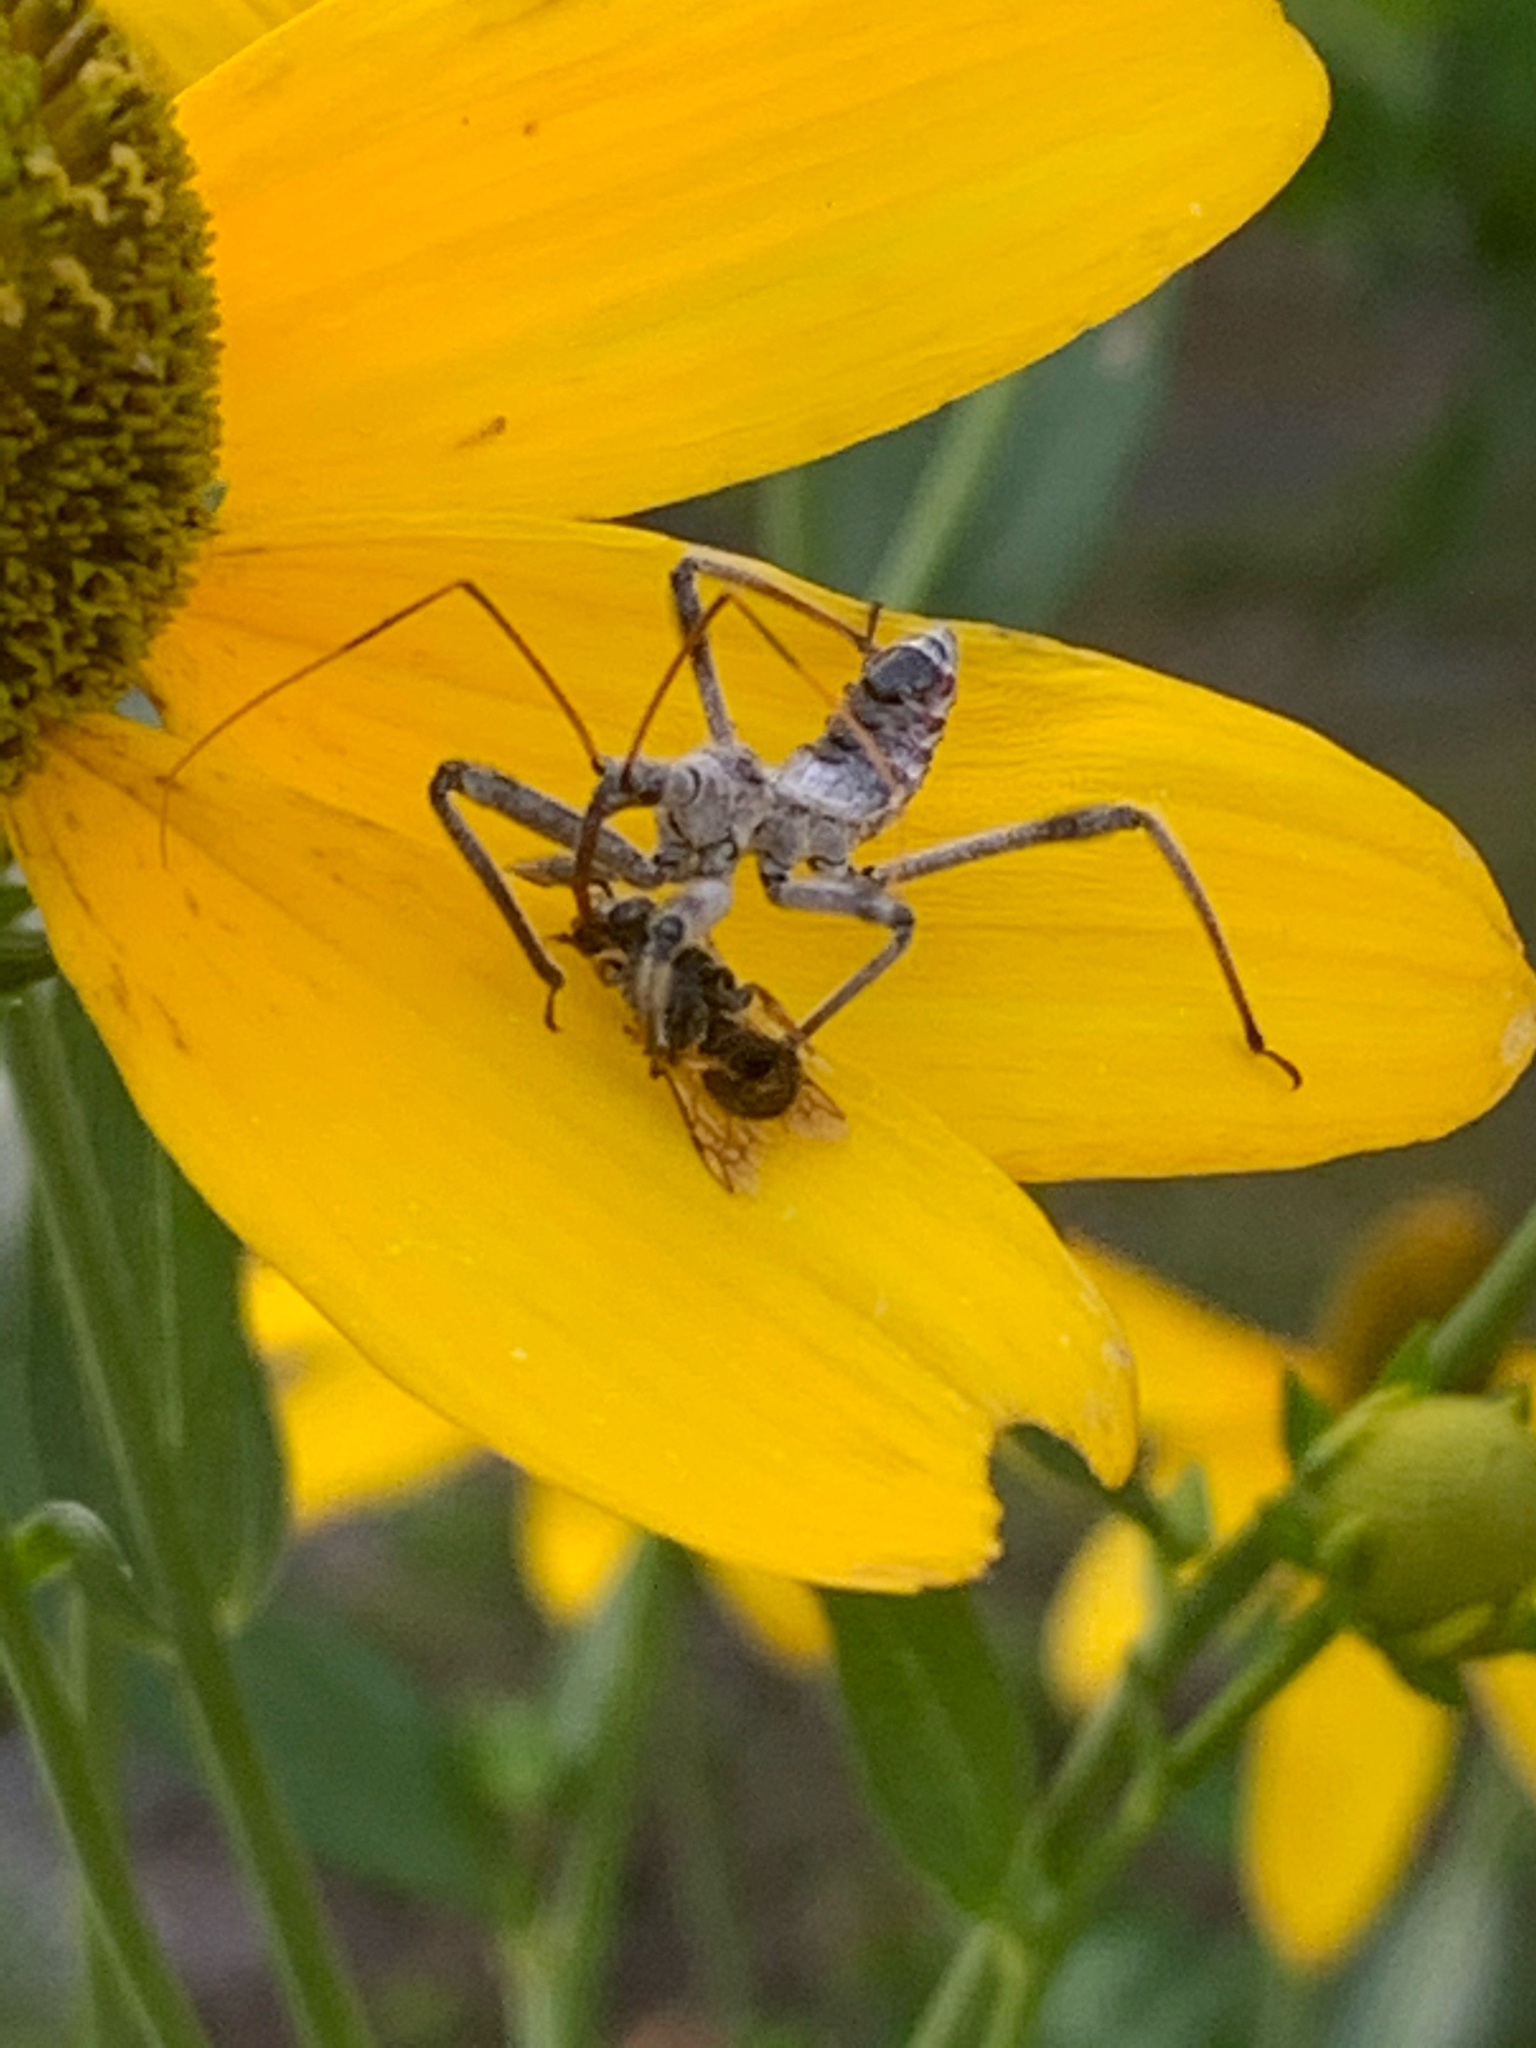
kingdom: Animalia
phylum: Arthropoda
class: Insecta
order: Hemiptera
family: Reduviidae
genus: Arilus
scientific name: Arilus cristatus
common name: North american wheel bug
